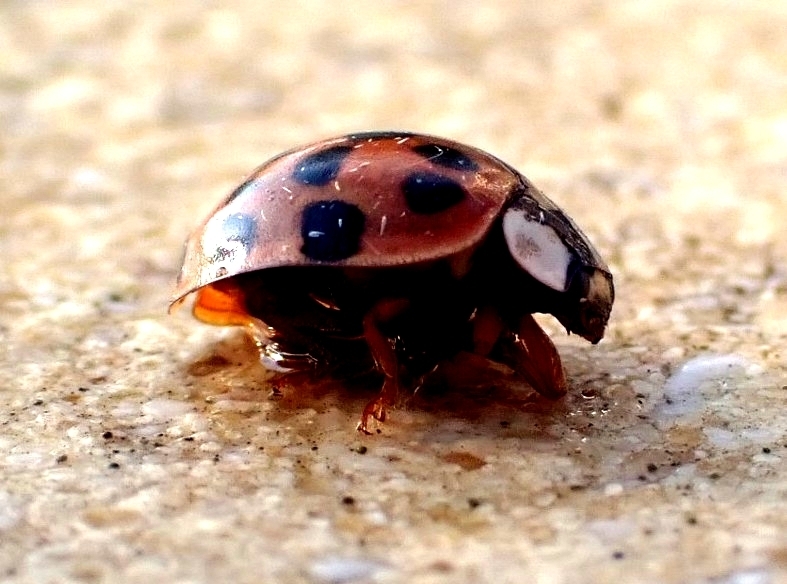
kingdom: Animalia
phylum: Arthropoda
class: Insecta
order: Coleoptera
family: Coccinellidae
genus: Harmonia
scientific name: Harmonia axyridis
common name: Harlequin ladybird
